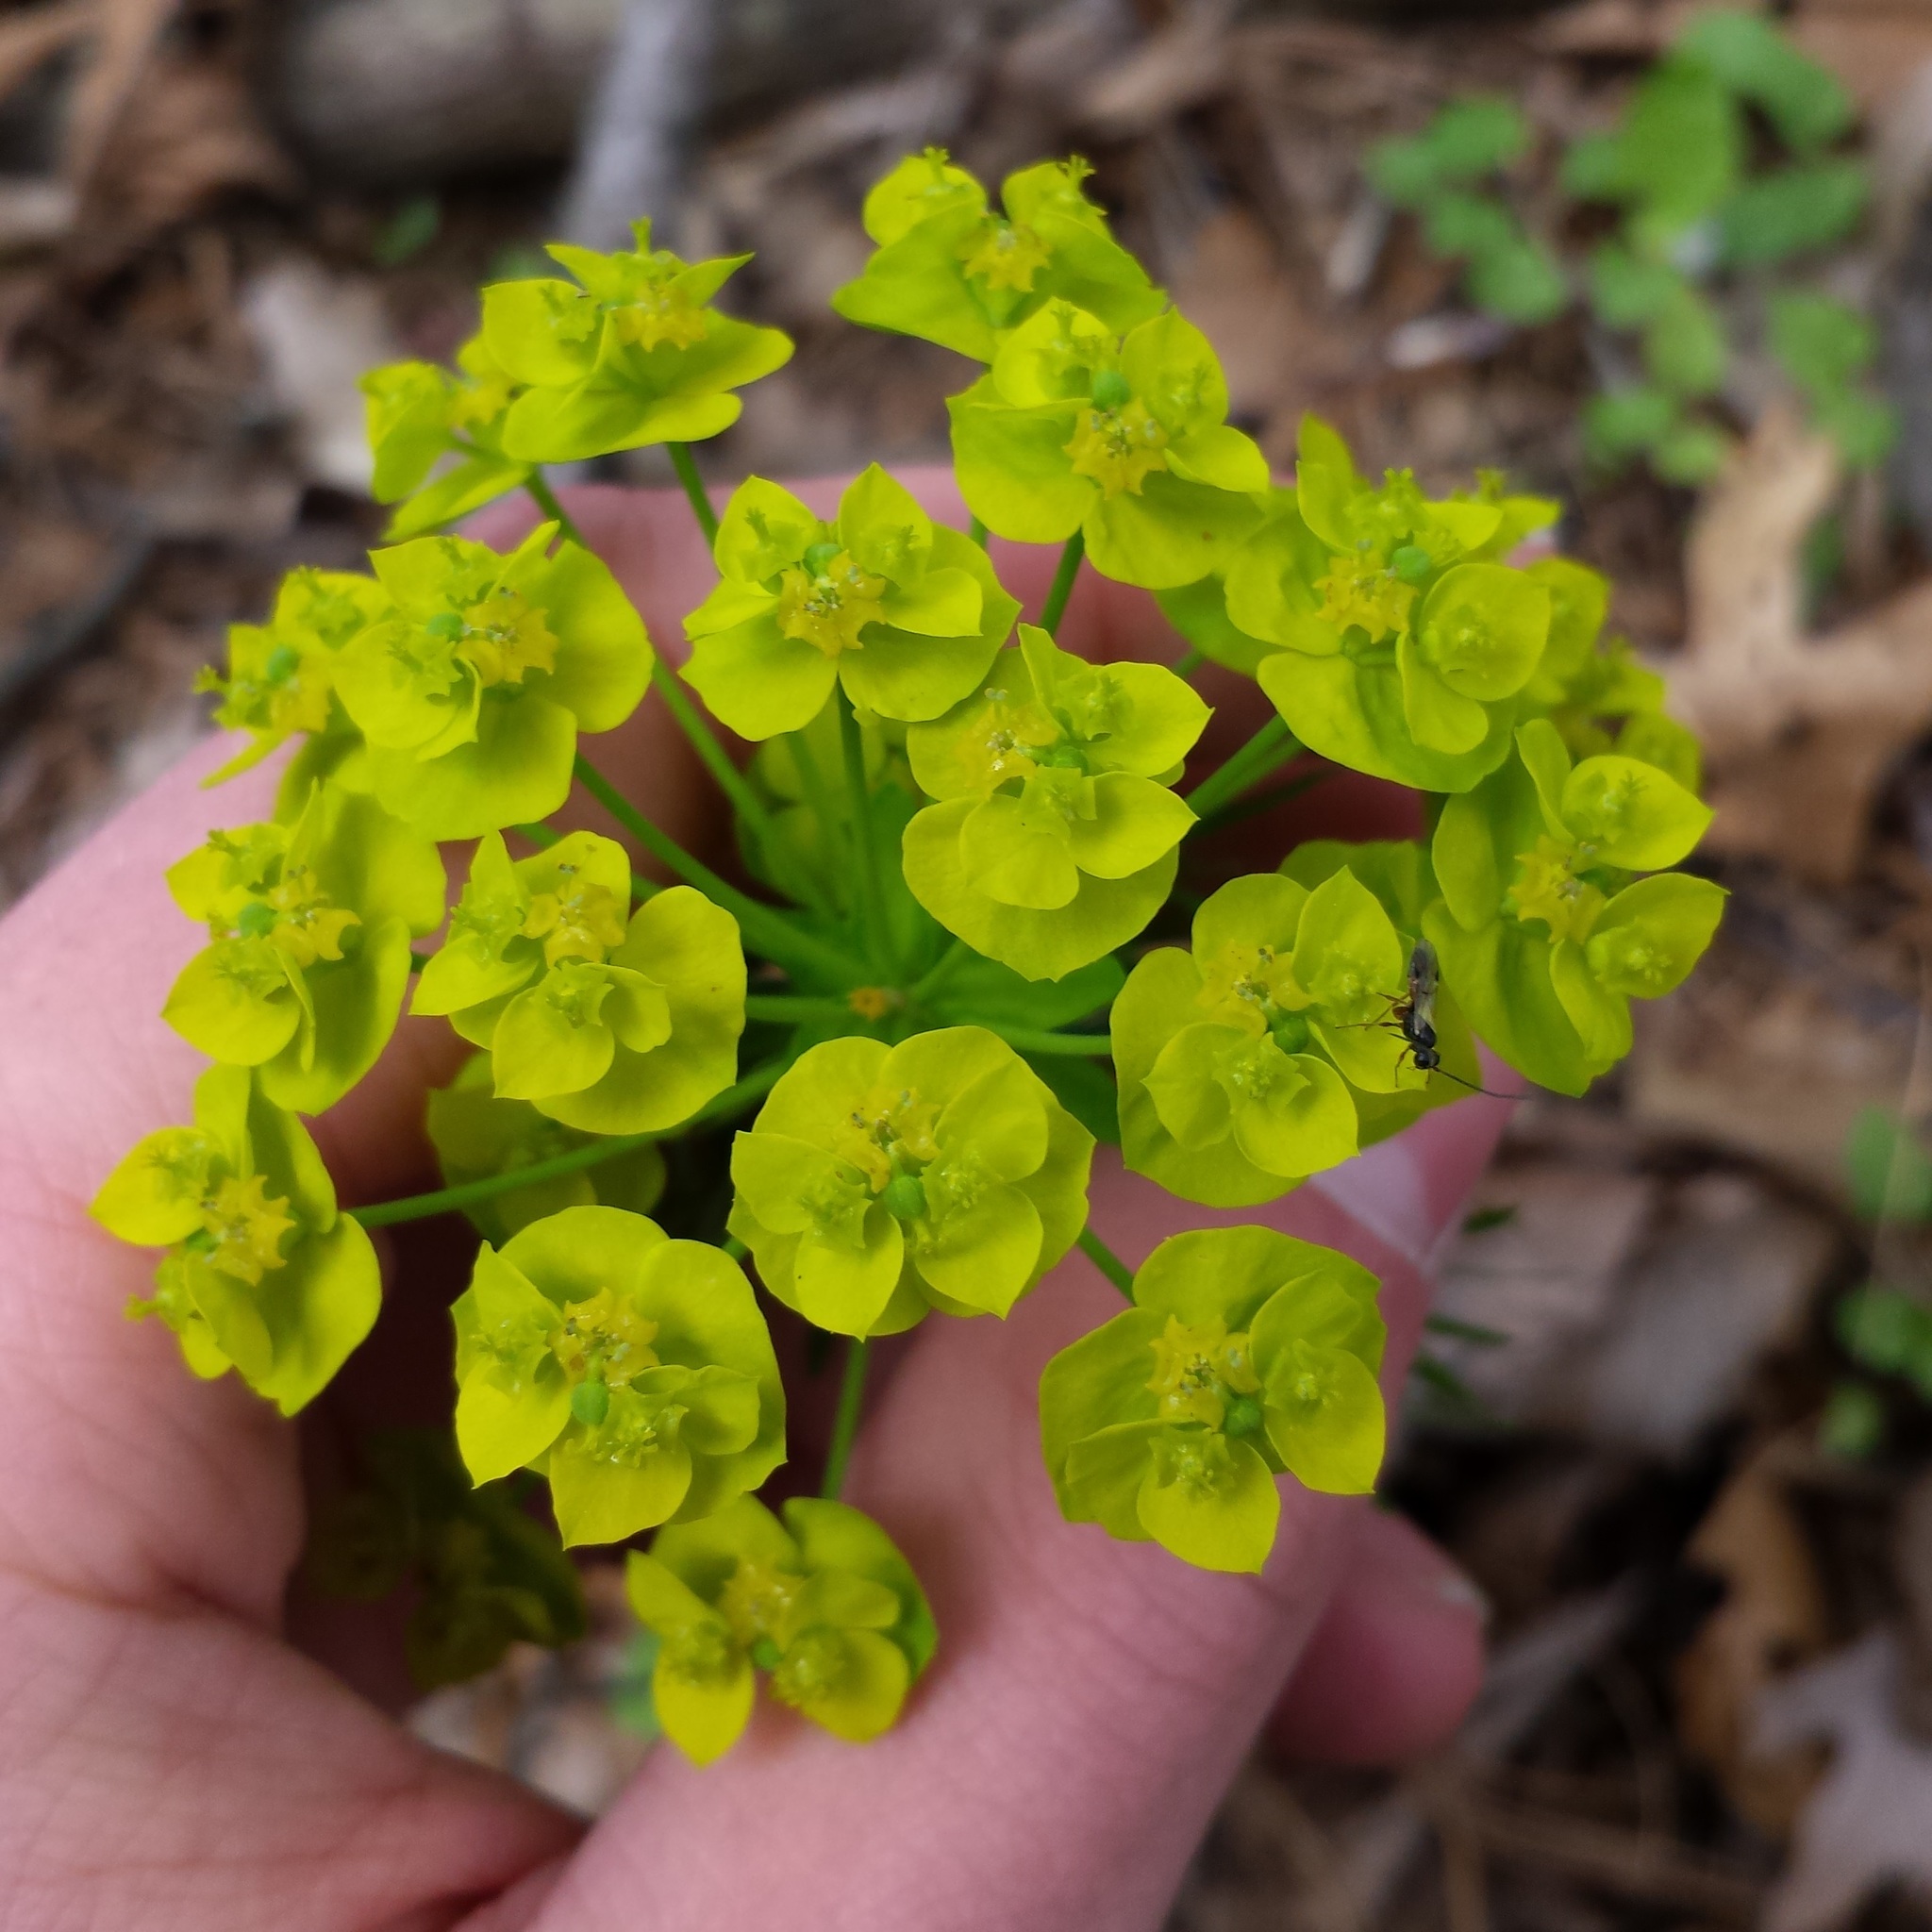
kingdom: Plantae
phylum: Tracheophyta
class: Magnoliopsida
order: Malpighiales
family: Euphorbiaceae
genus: Euphorbia
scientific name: Euphorbia cyparissias
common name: Cypress spurge
